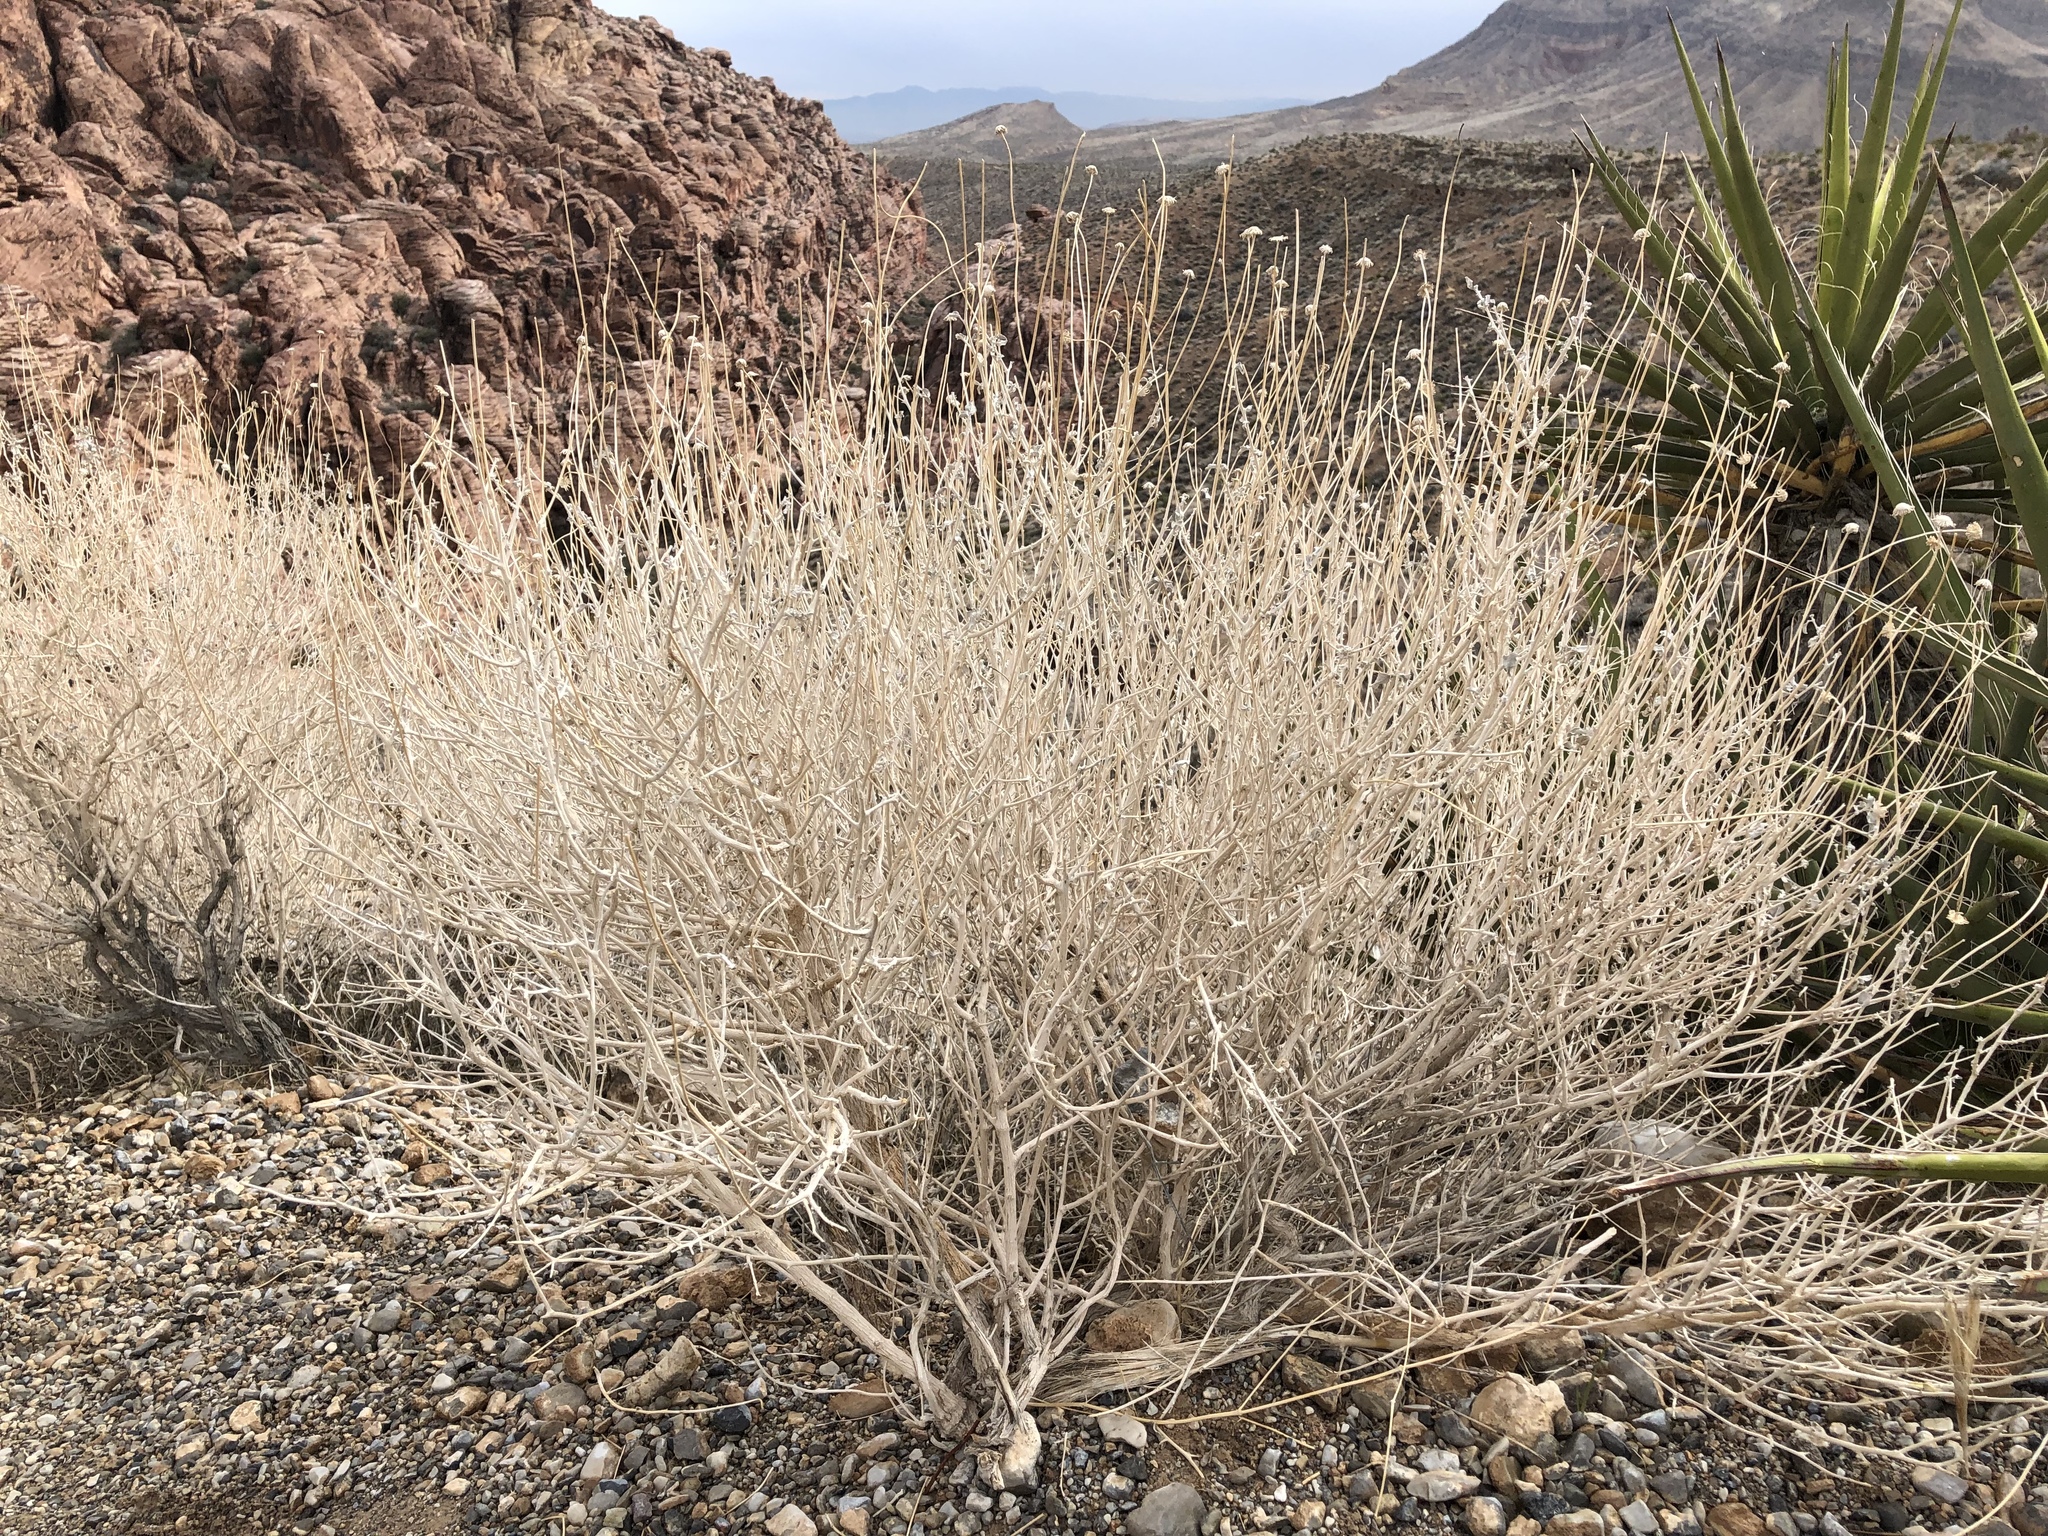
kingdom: Plantae
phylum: Tracheophyta
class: Magnoliopsida
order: Asterales
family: Asteraceae
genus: Encelia
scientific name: Encelia virginensis
